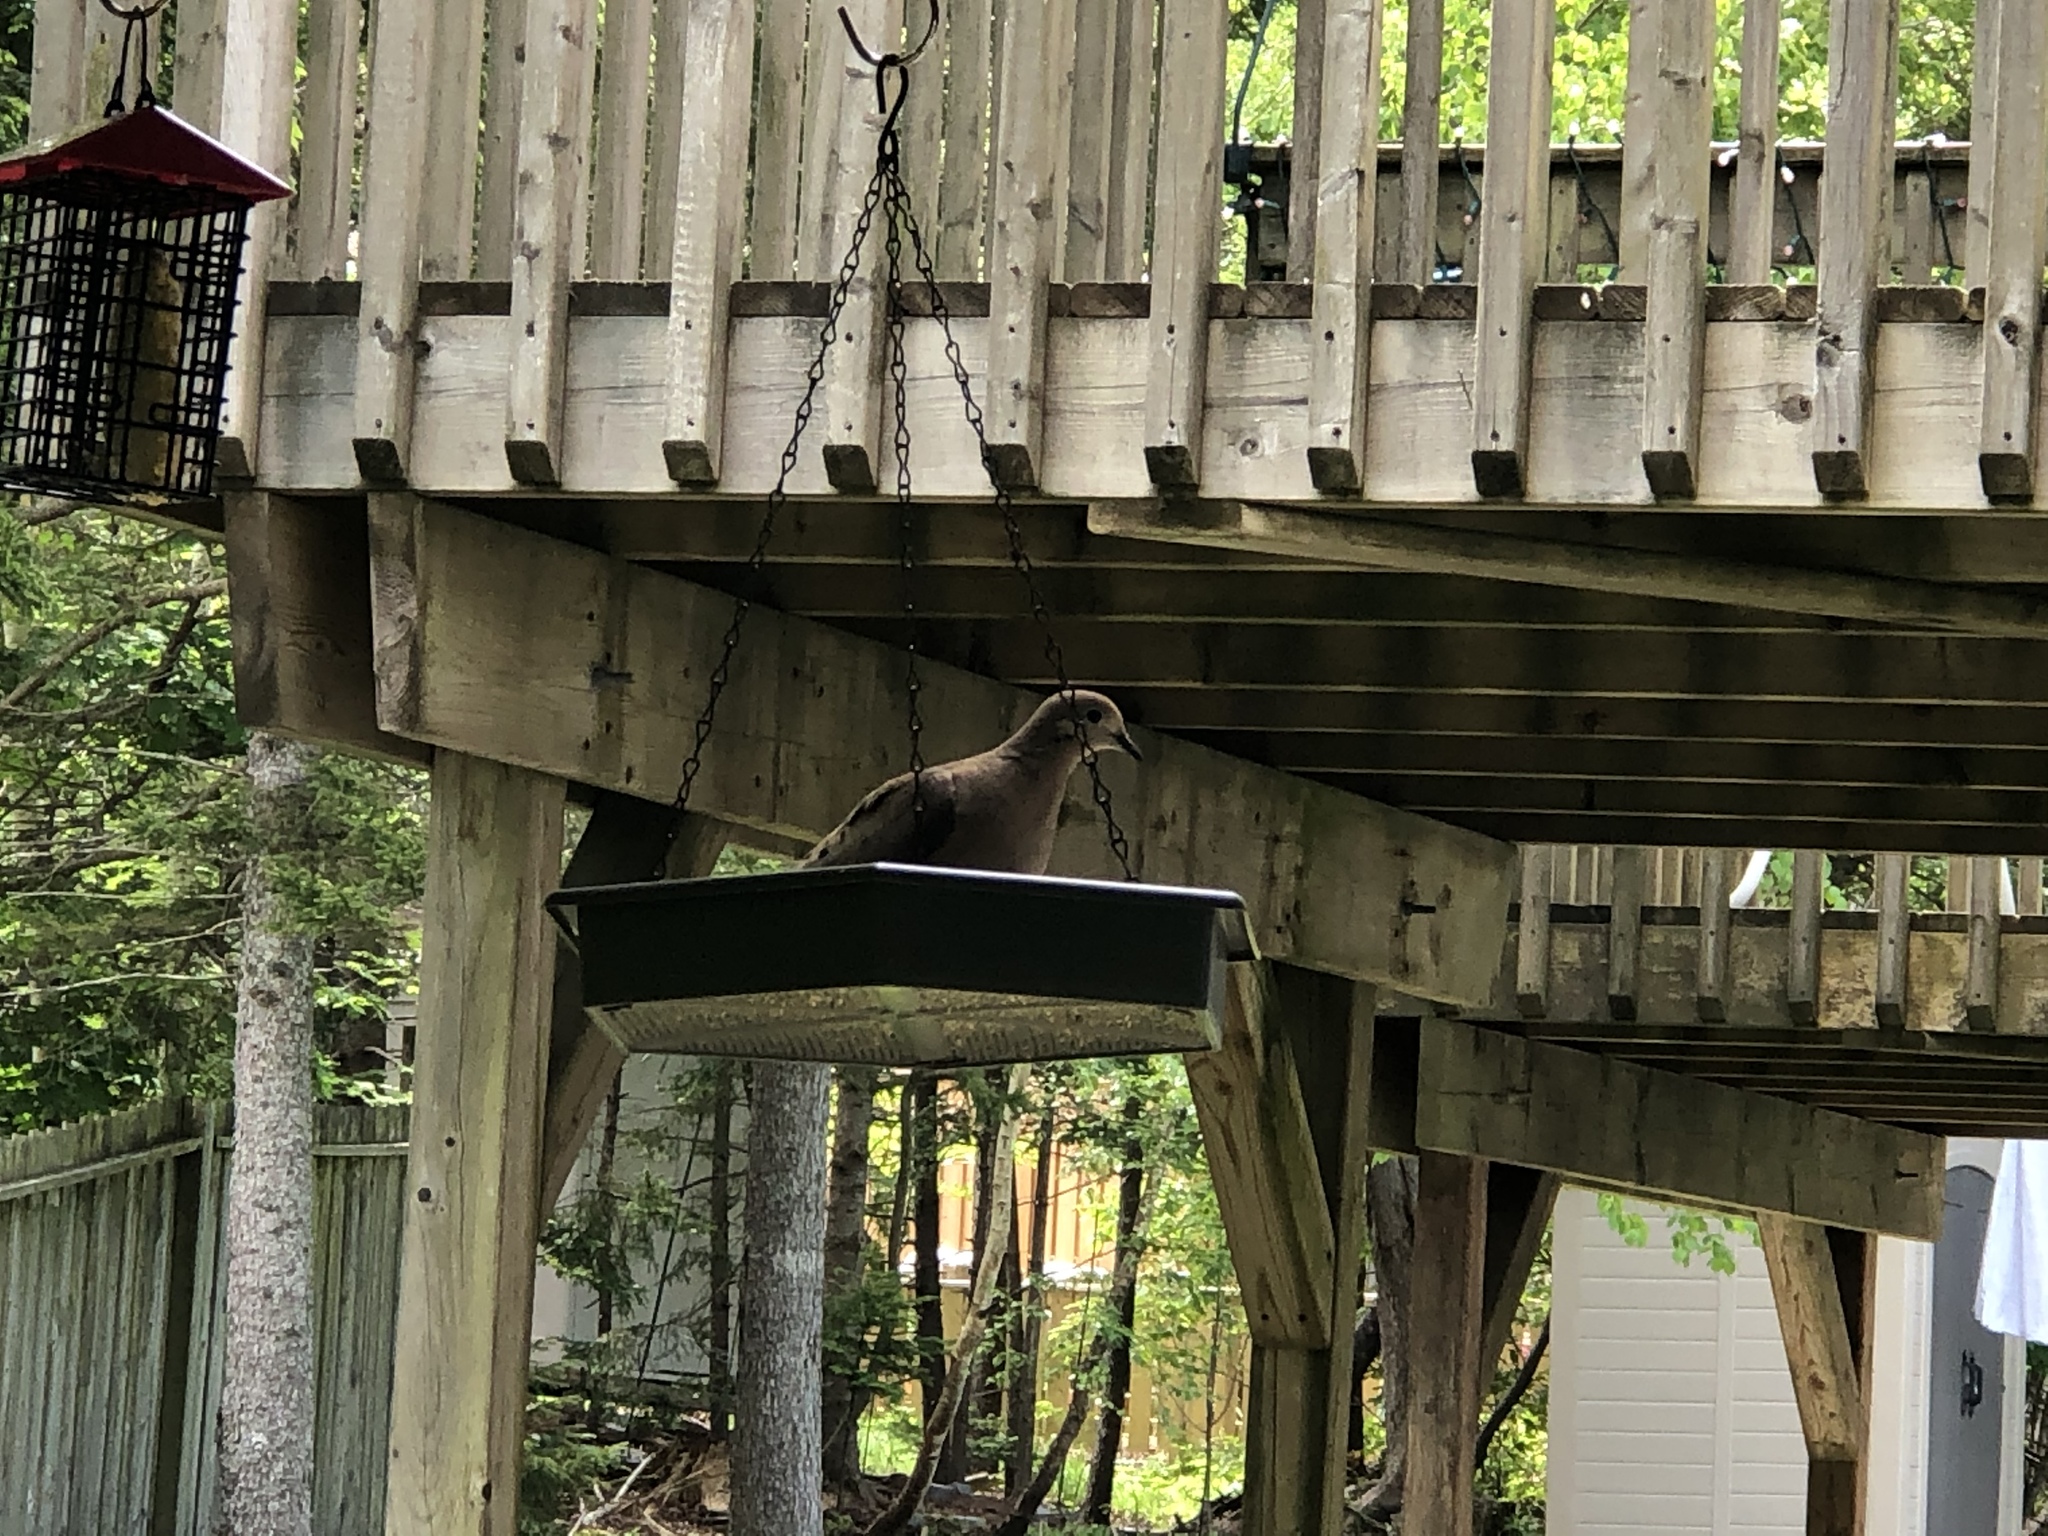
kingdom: Animalia
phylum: Chordata
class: Aves
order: Columbiformes
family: Columbidae
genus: Zenaida
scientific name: Zenaida macroura
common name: Mourning dove
